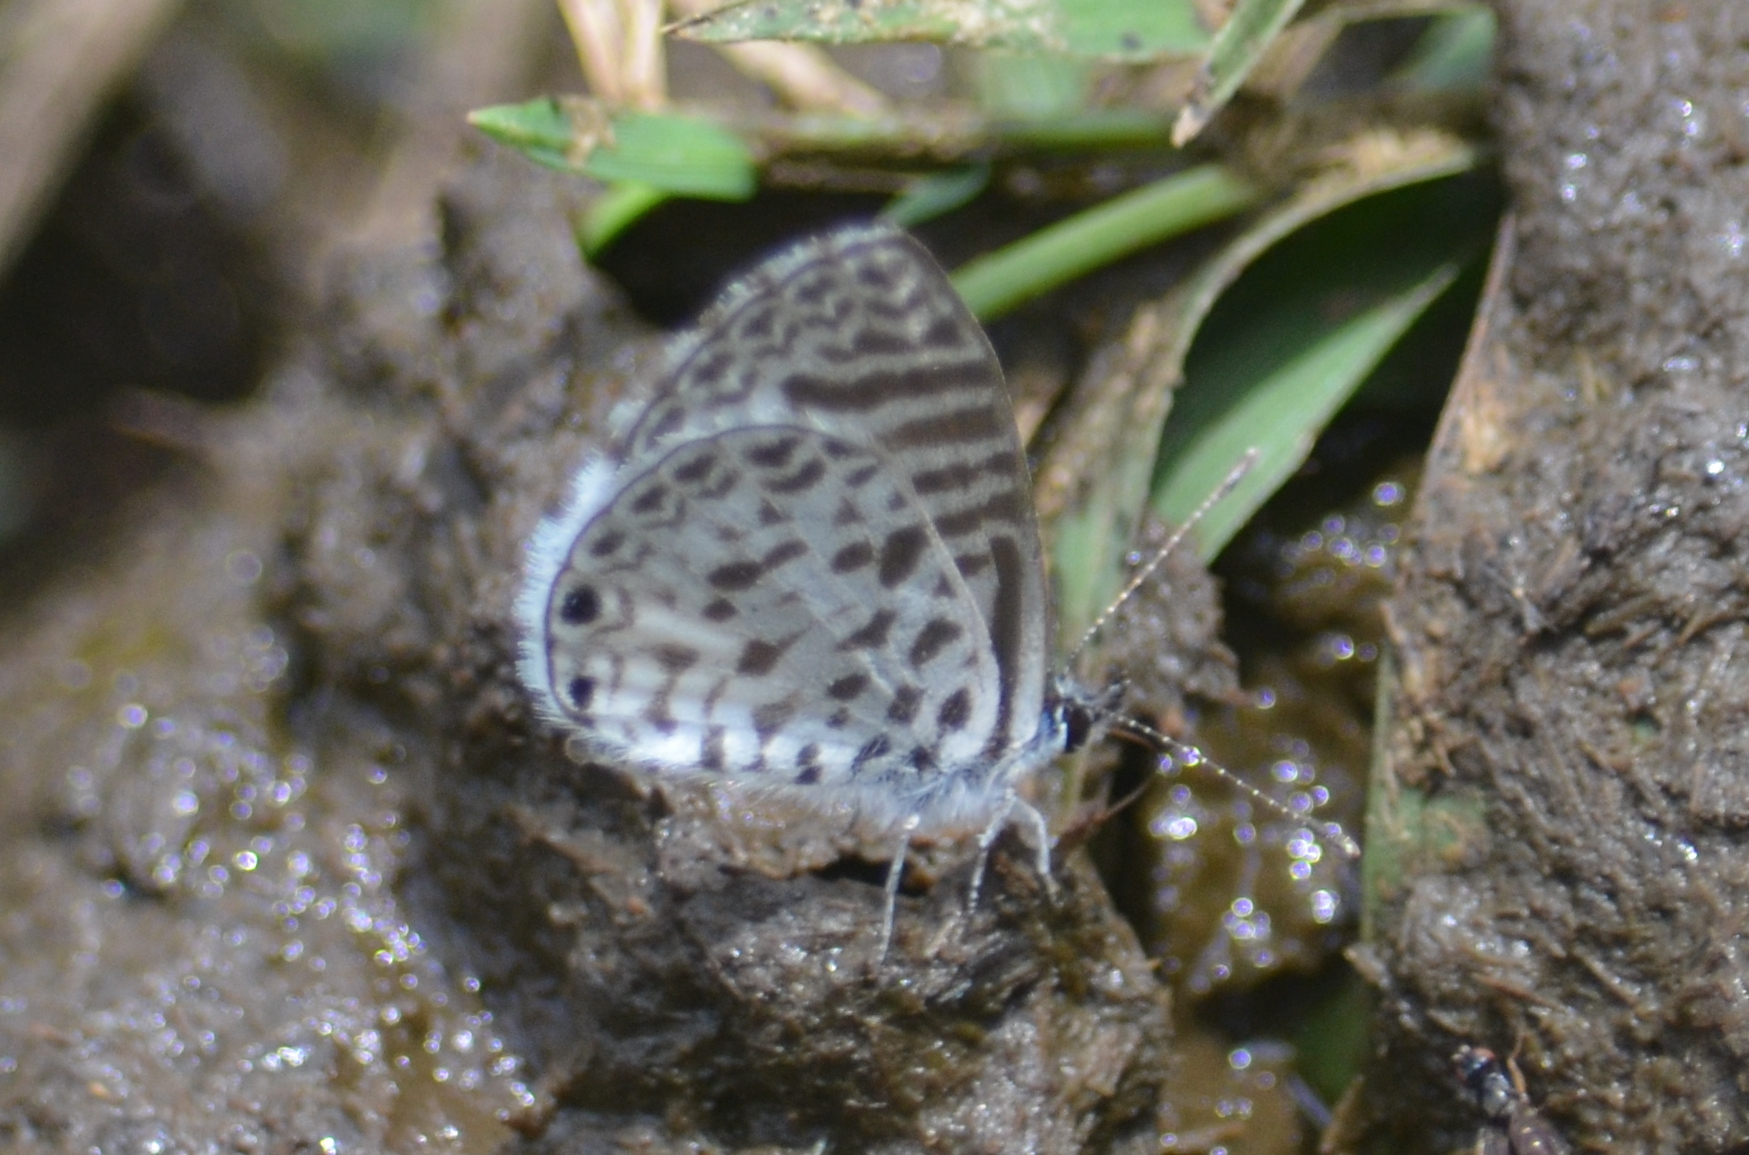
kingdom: Animalia
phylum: Arthropoda
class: Insecta
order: Lepidoptera
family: Lycaenidae
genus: Leptotes
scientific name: Leptotes cassius
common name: Cassius blue
